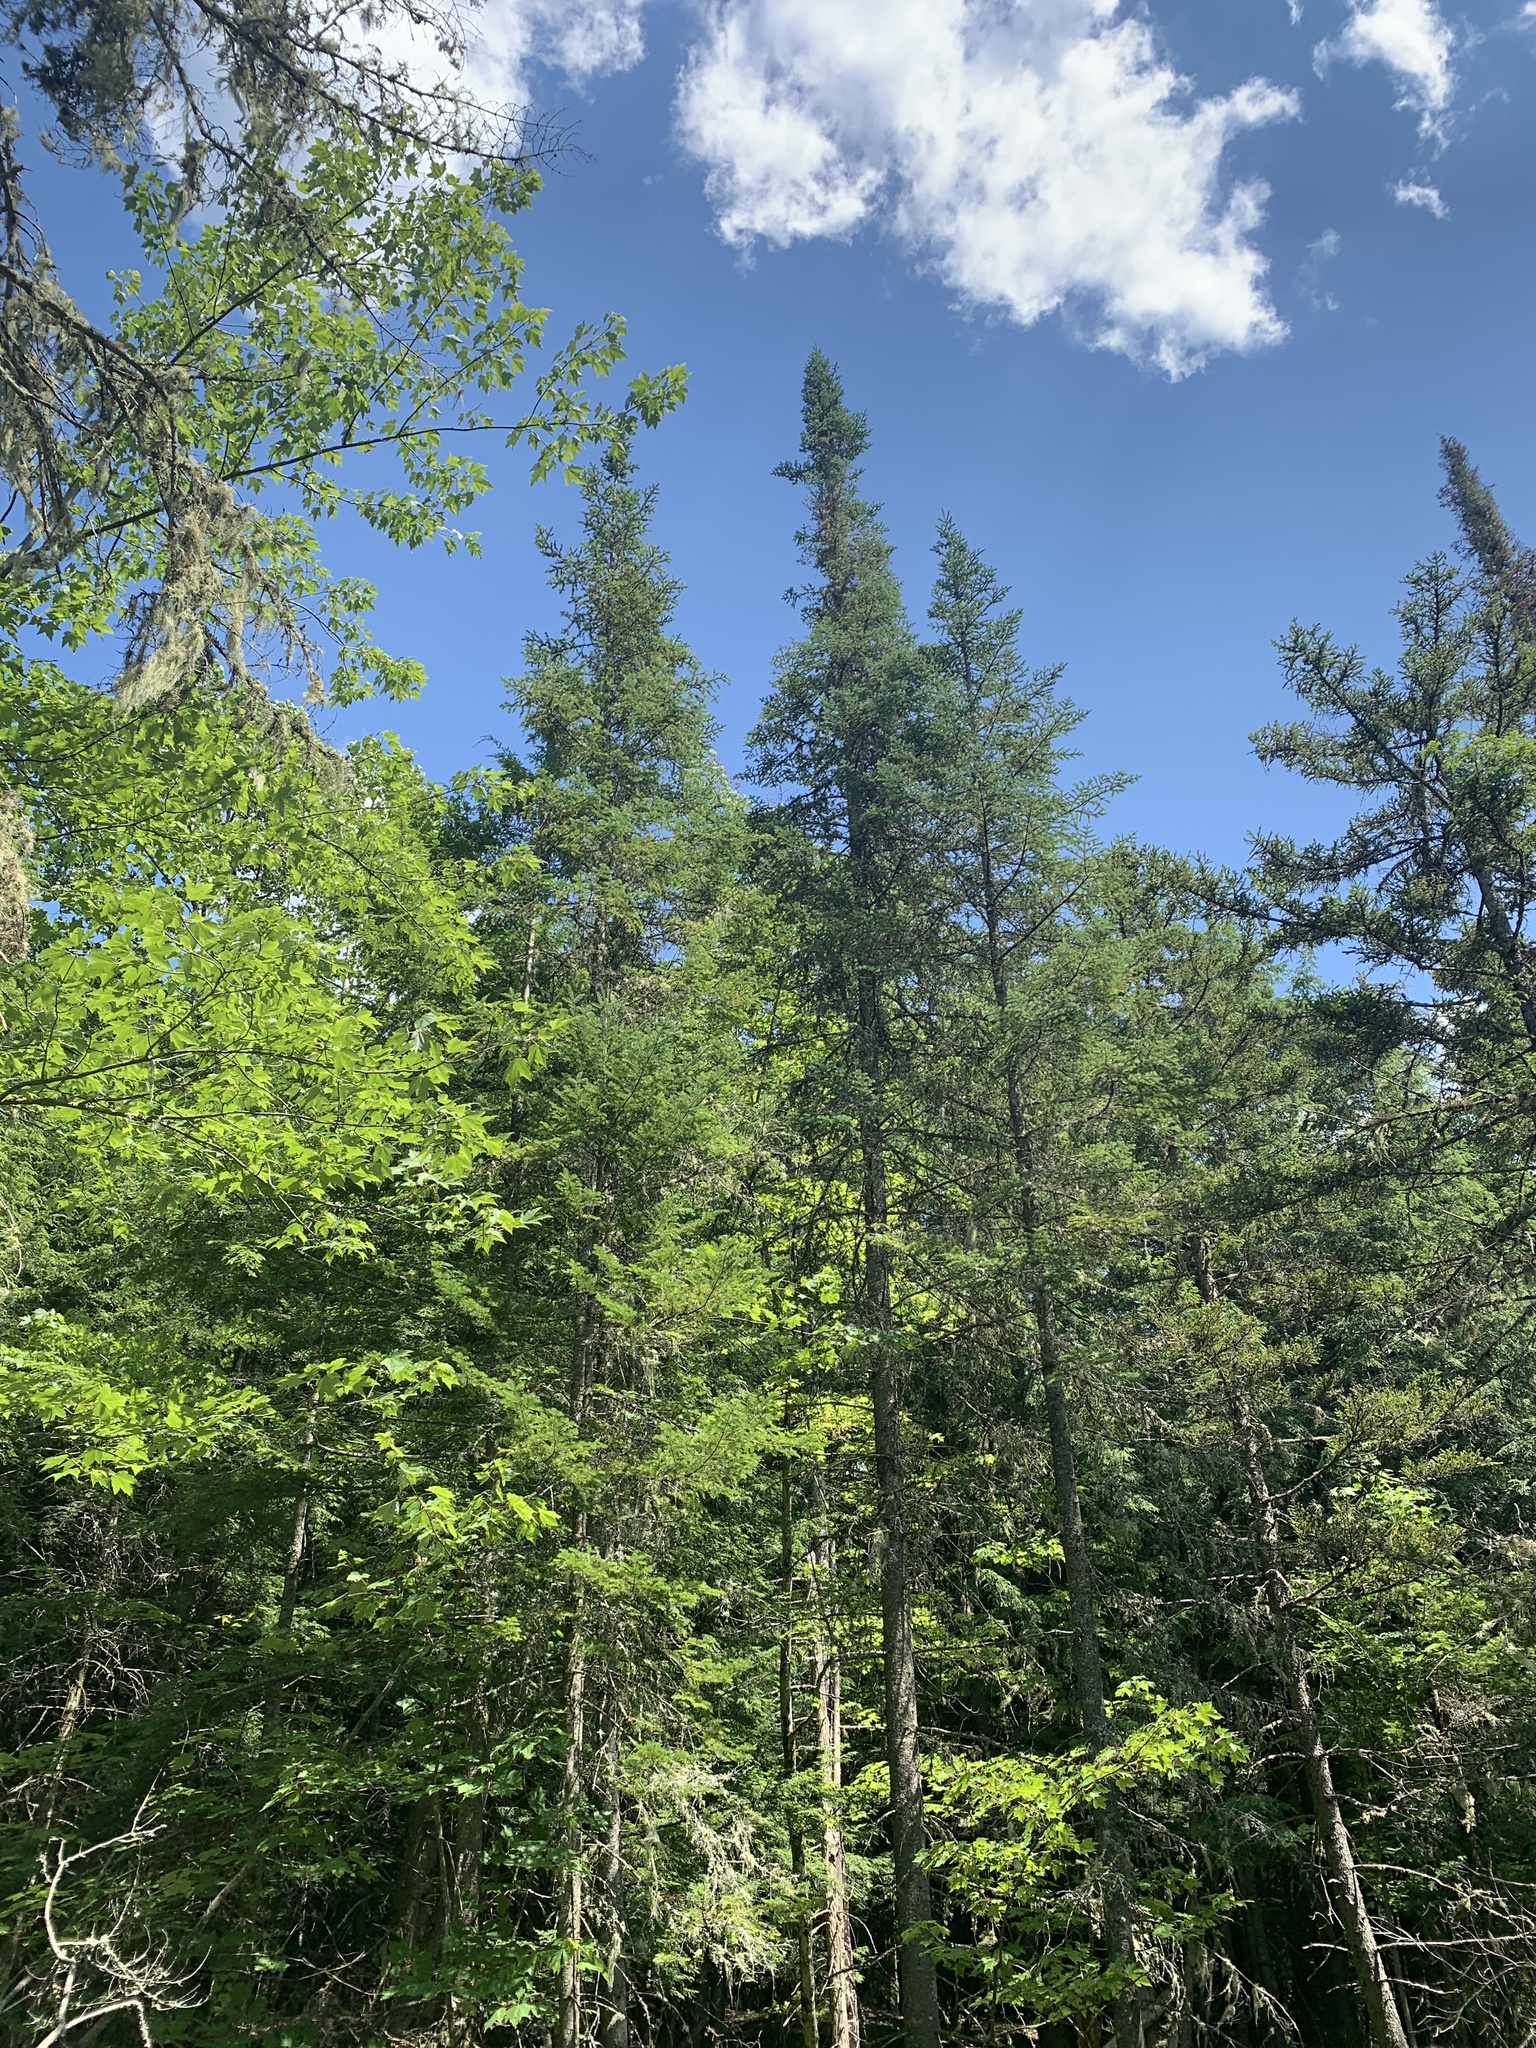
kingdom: Plantae
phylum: Tracheophyta
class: Pinopsida
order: Pinales
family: Pinaceae
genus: Abies
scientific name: Abies balsamea
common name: Balsam fir
